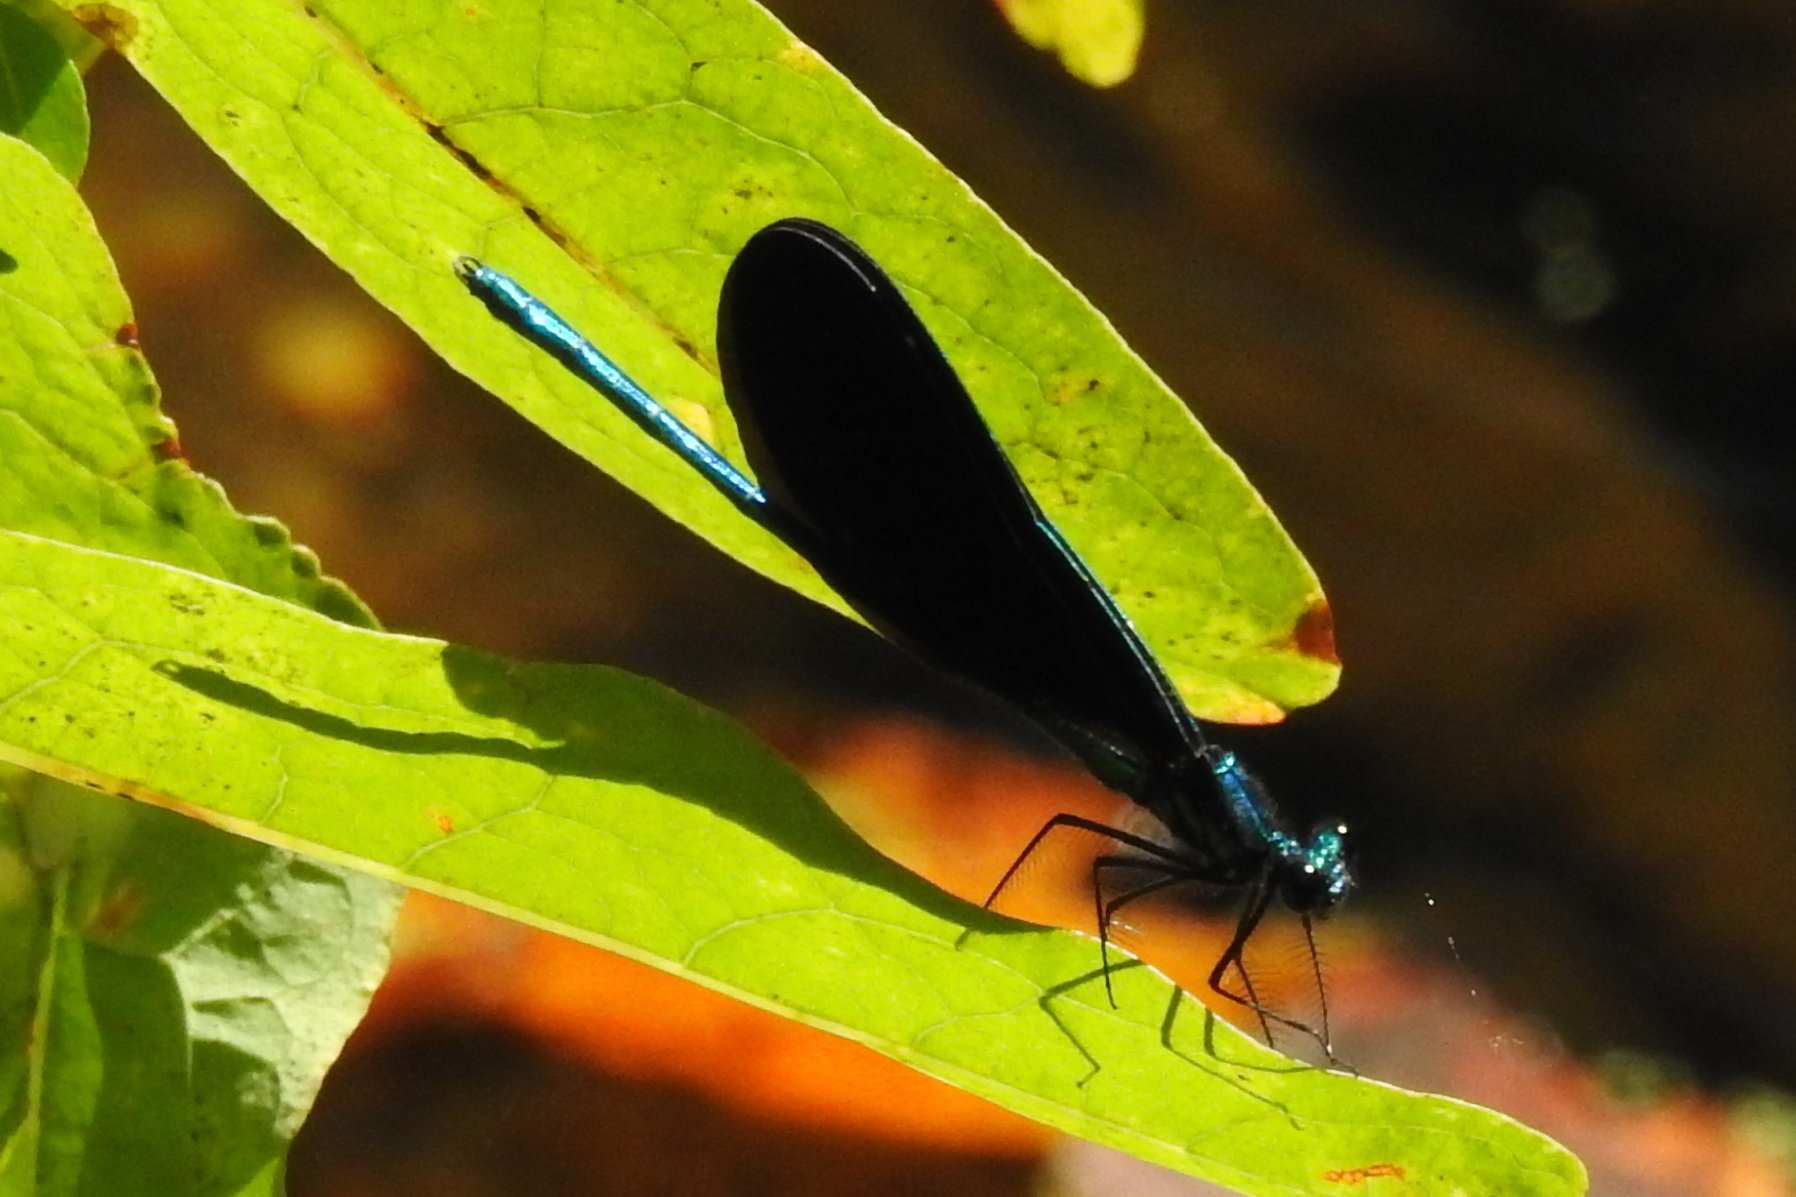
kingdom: Animalia
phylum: Arthropoda
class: Insecta
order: Odonata
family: Calopterygidae
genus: Calopteryx
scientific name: Calopteryx maculata
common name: Ebony jewelwing
